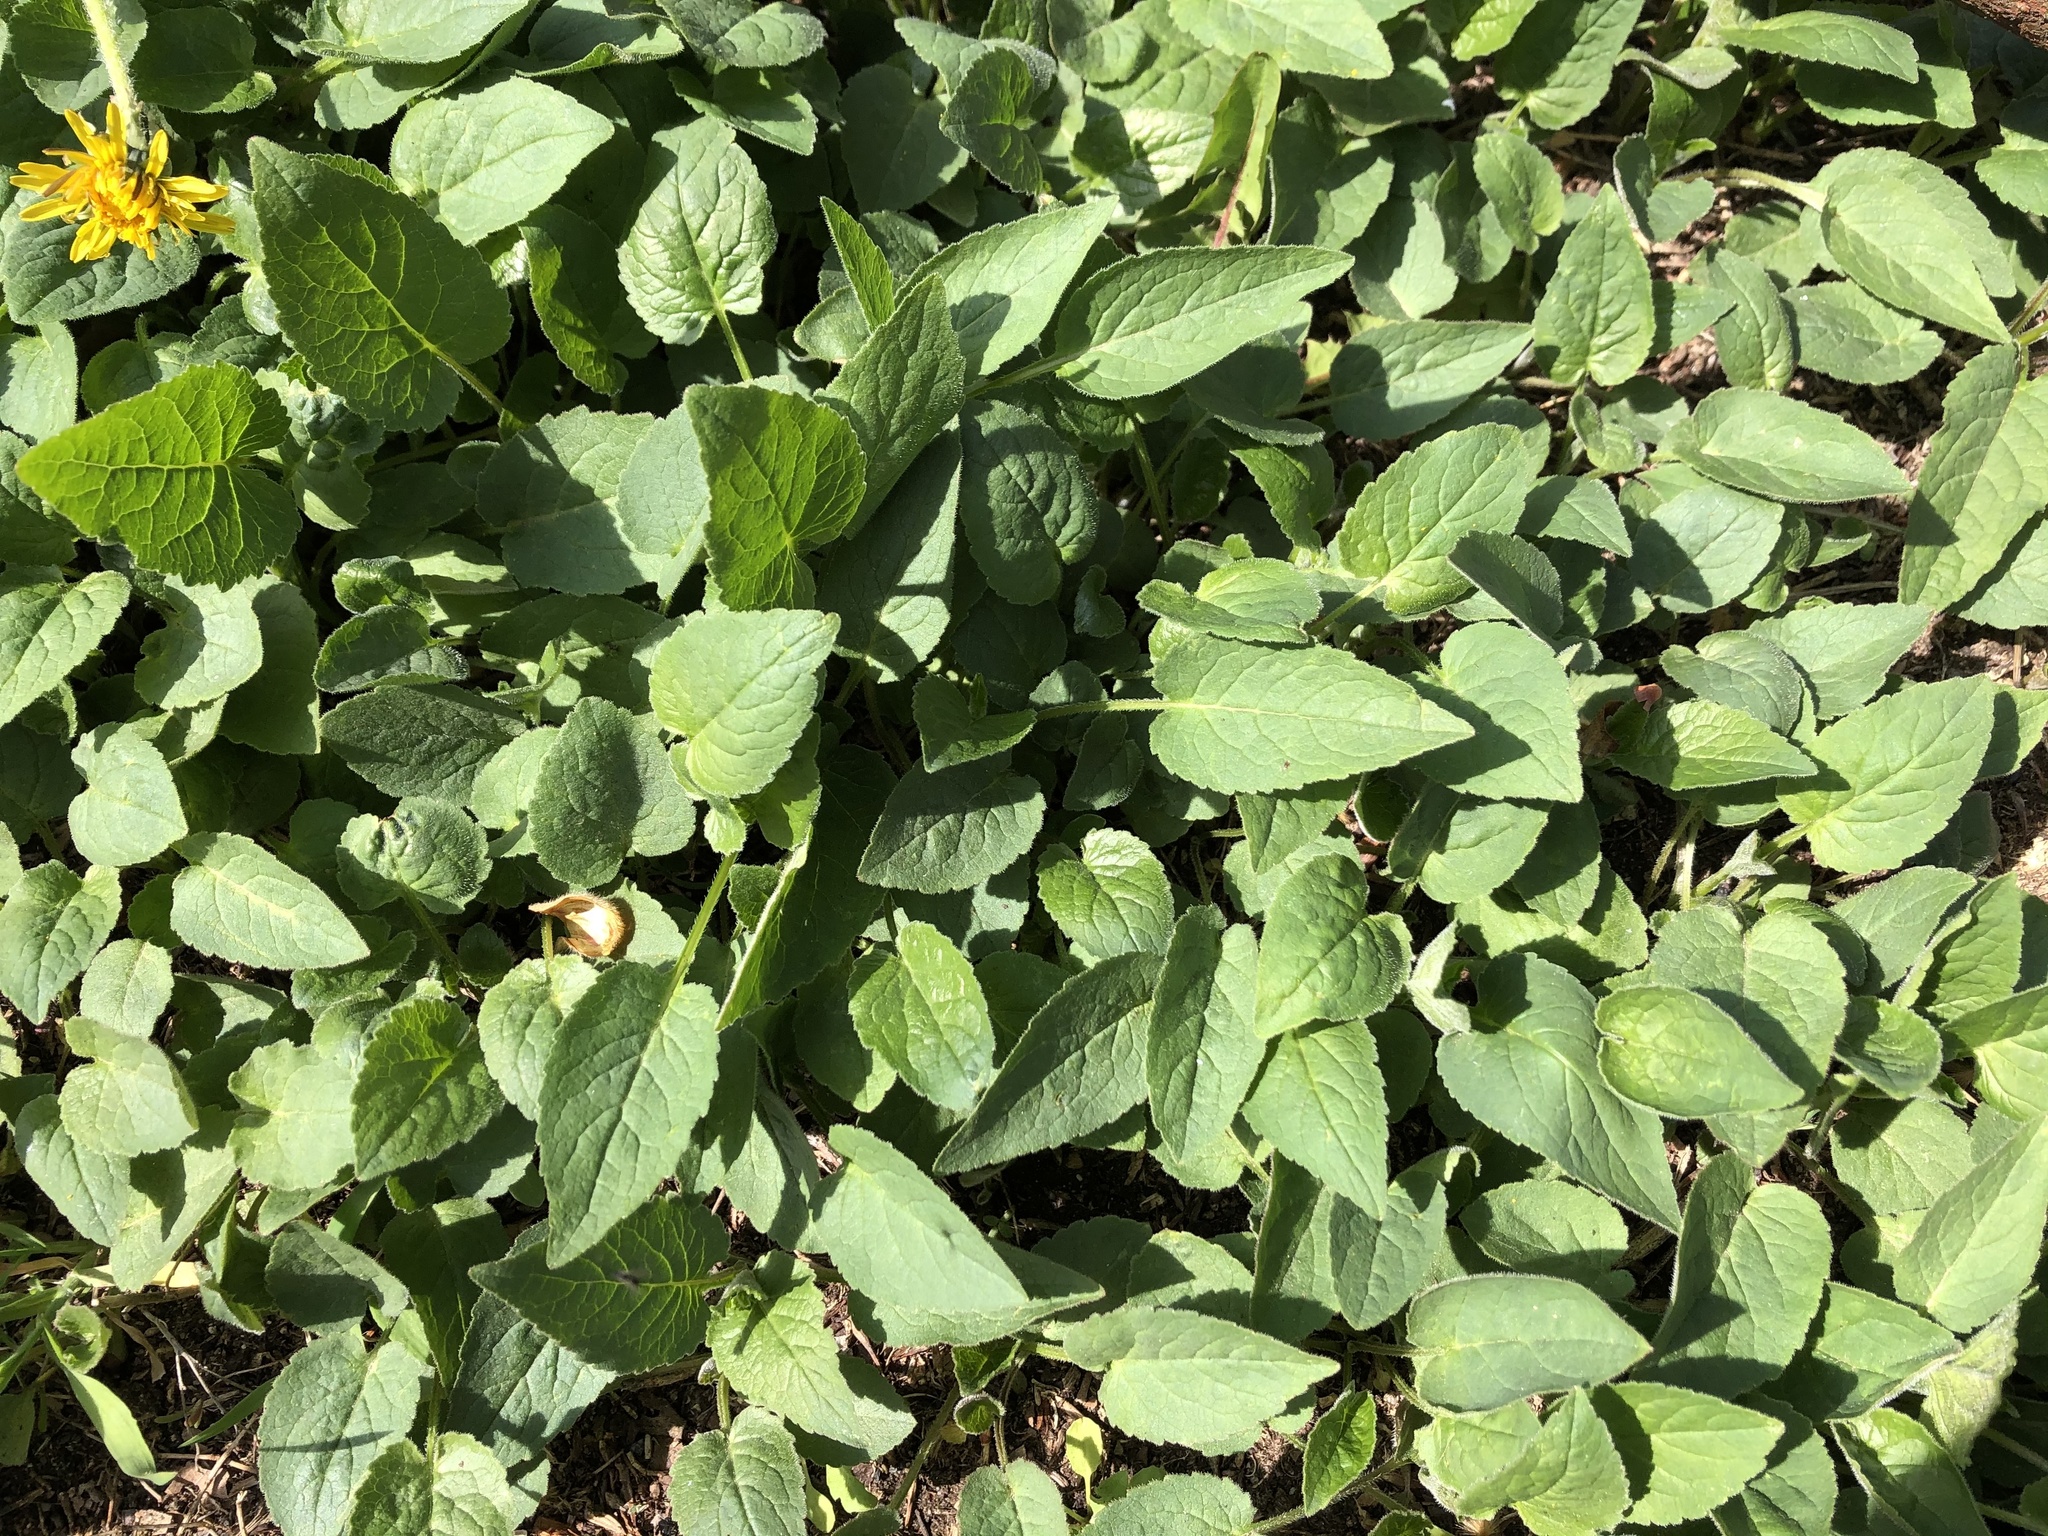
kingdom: Plantae
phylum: Tracheophyta
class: Magnoliopsida
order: Asterales
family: Campanulaceae
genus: Campanula
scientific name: Campanula rapunculoides
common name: Creeping bellflower
